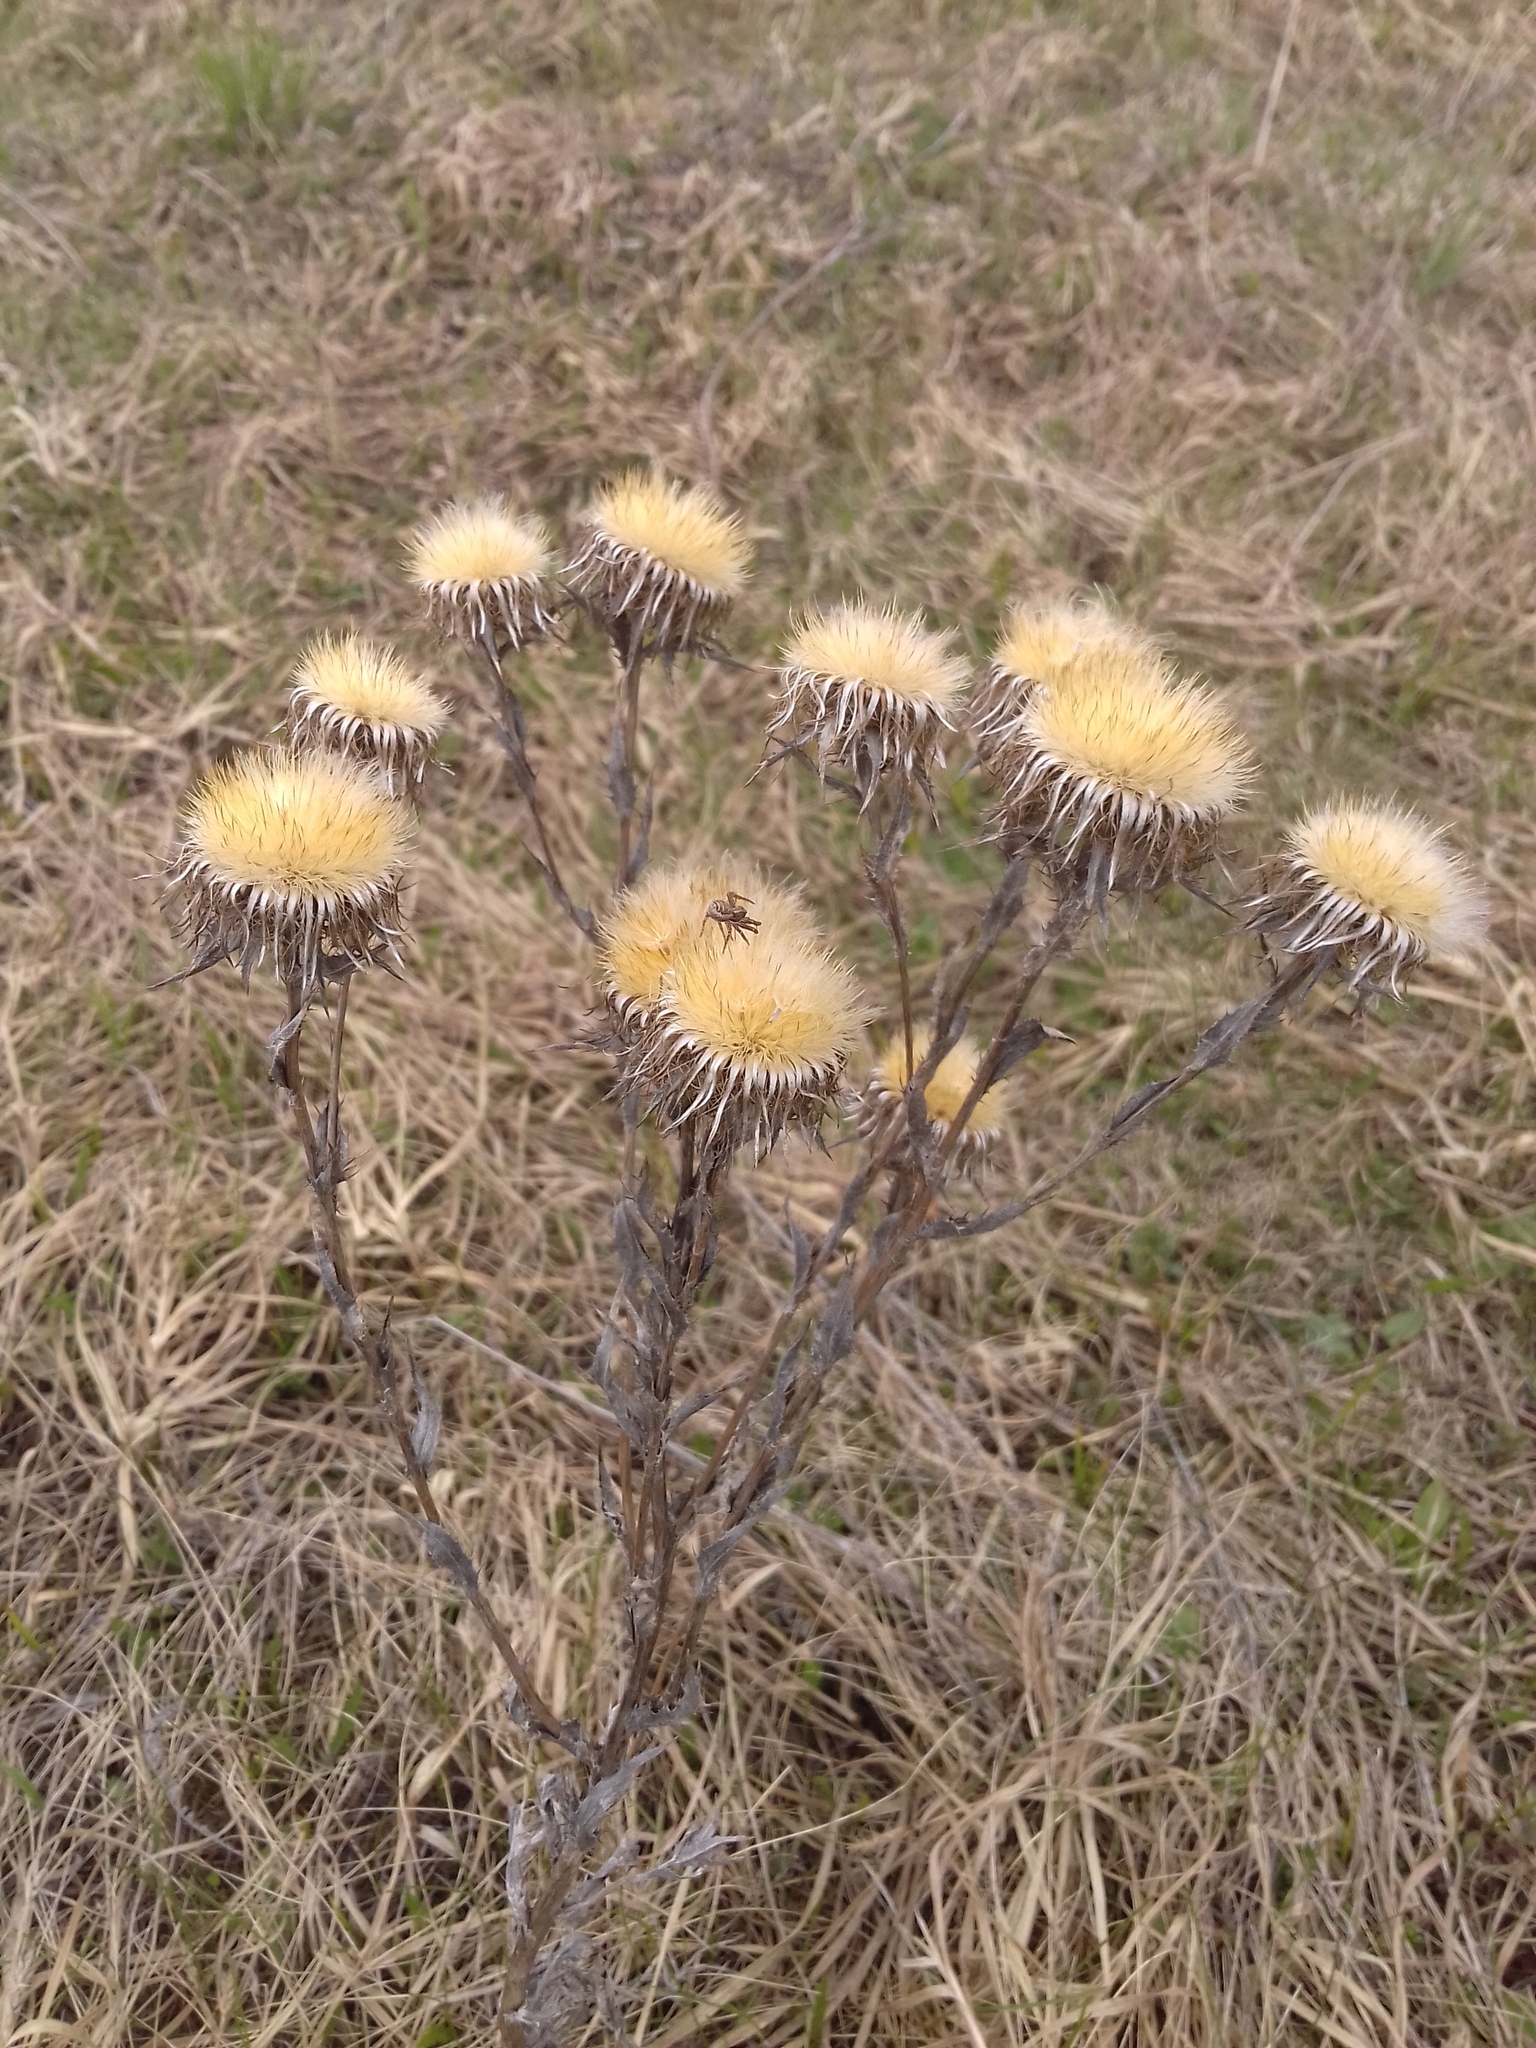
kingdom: Plantae
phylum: Tracheophyta
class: Magnoliopsida
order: Asterales
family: Asteraceae
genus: Carlina
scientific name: Carlina biebersteinii
